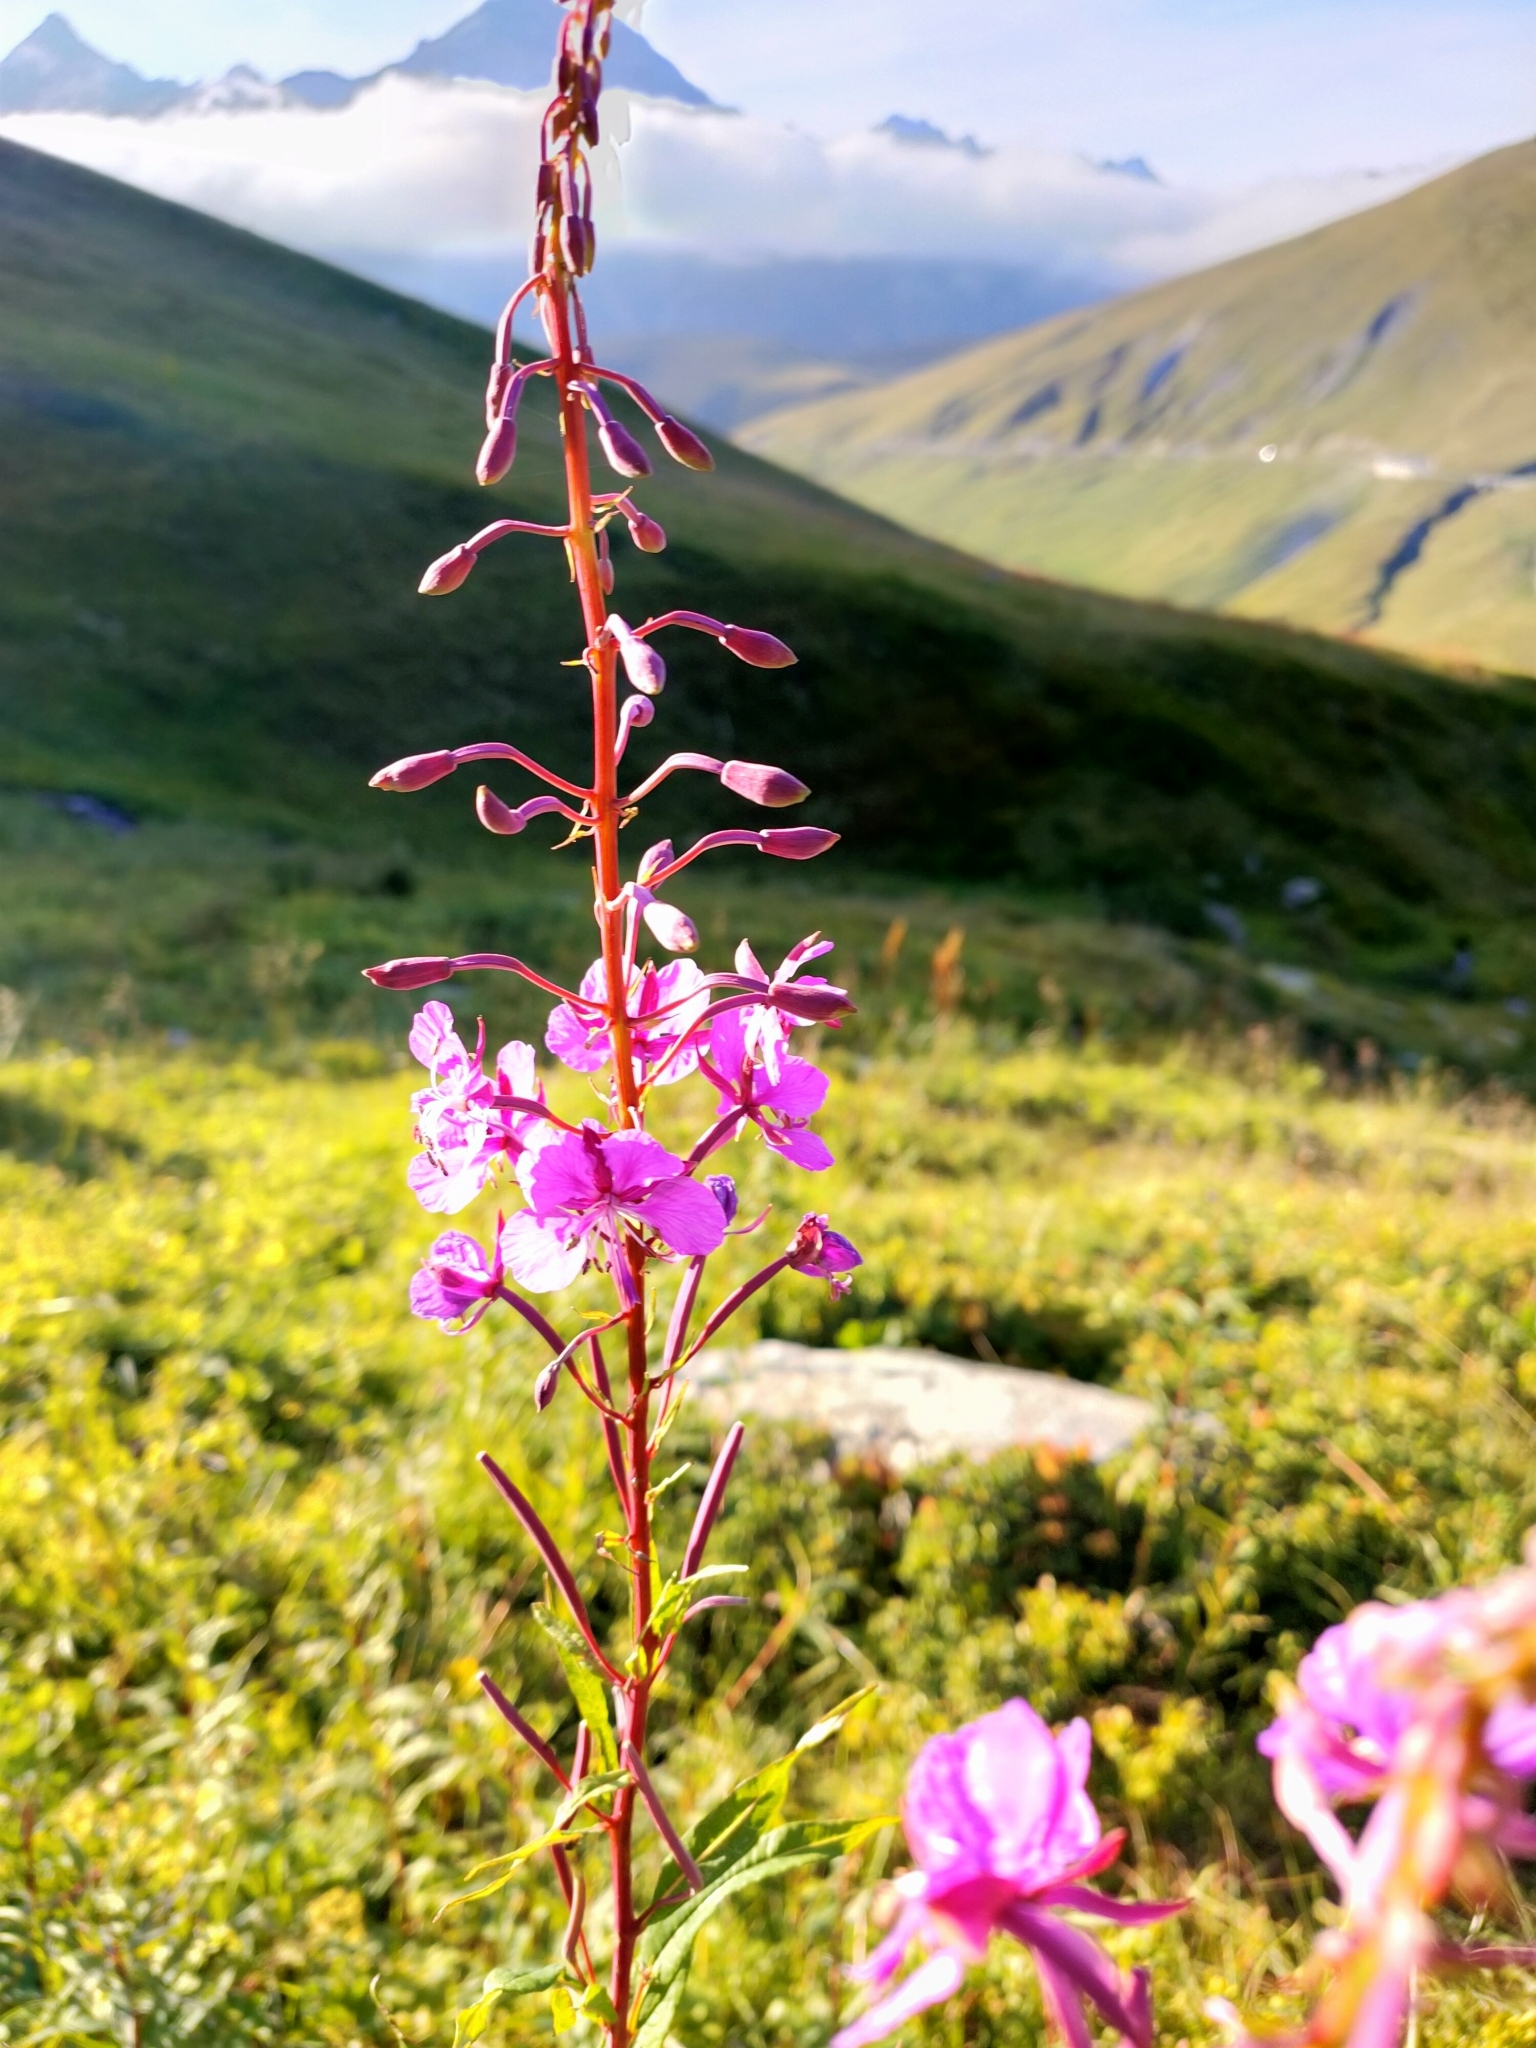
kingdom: Plantae
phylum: Tracheophyta
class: Magnoliopsida
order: Myrtales
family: Onagraceae
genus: Chamaenerion
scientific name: Chamaenerion angustifolium
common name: Fireweed
